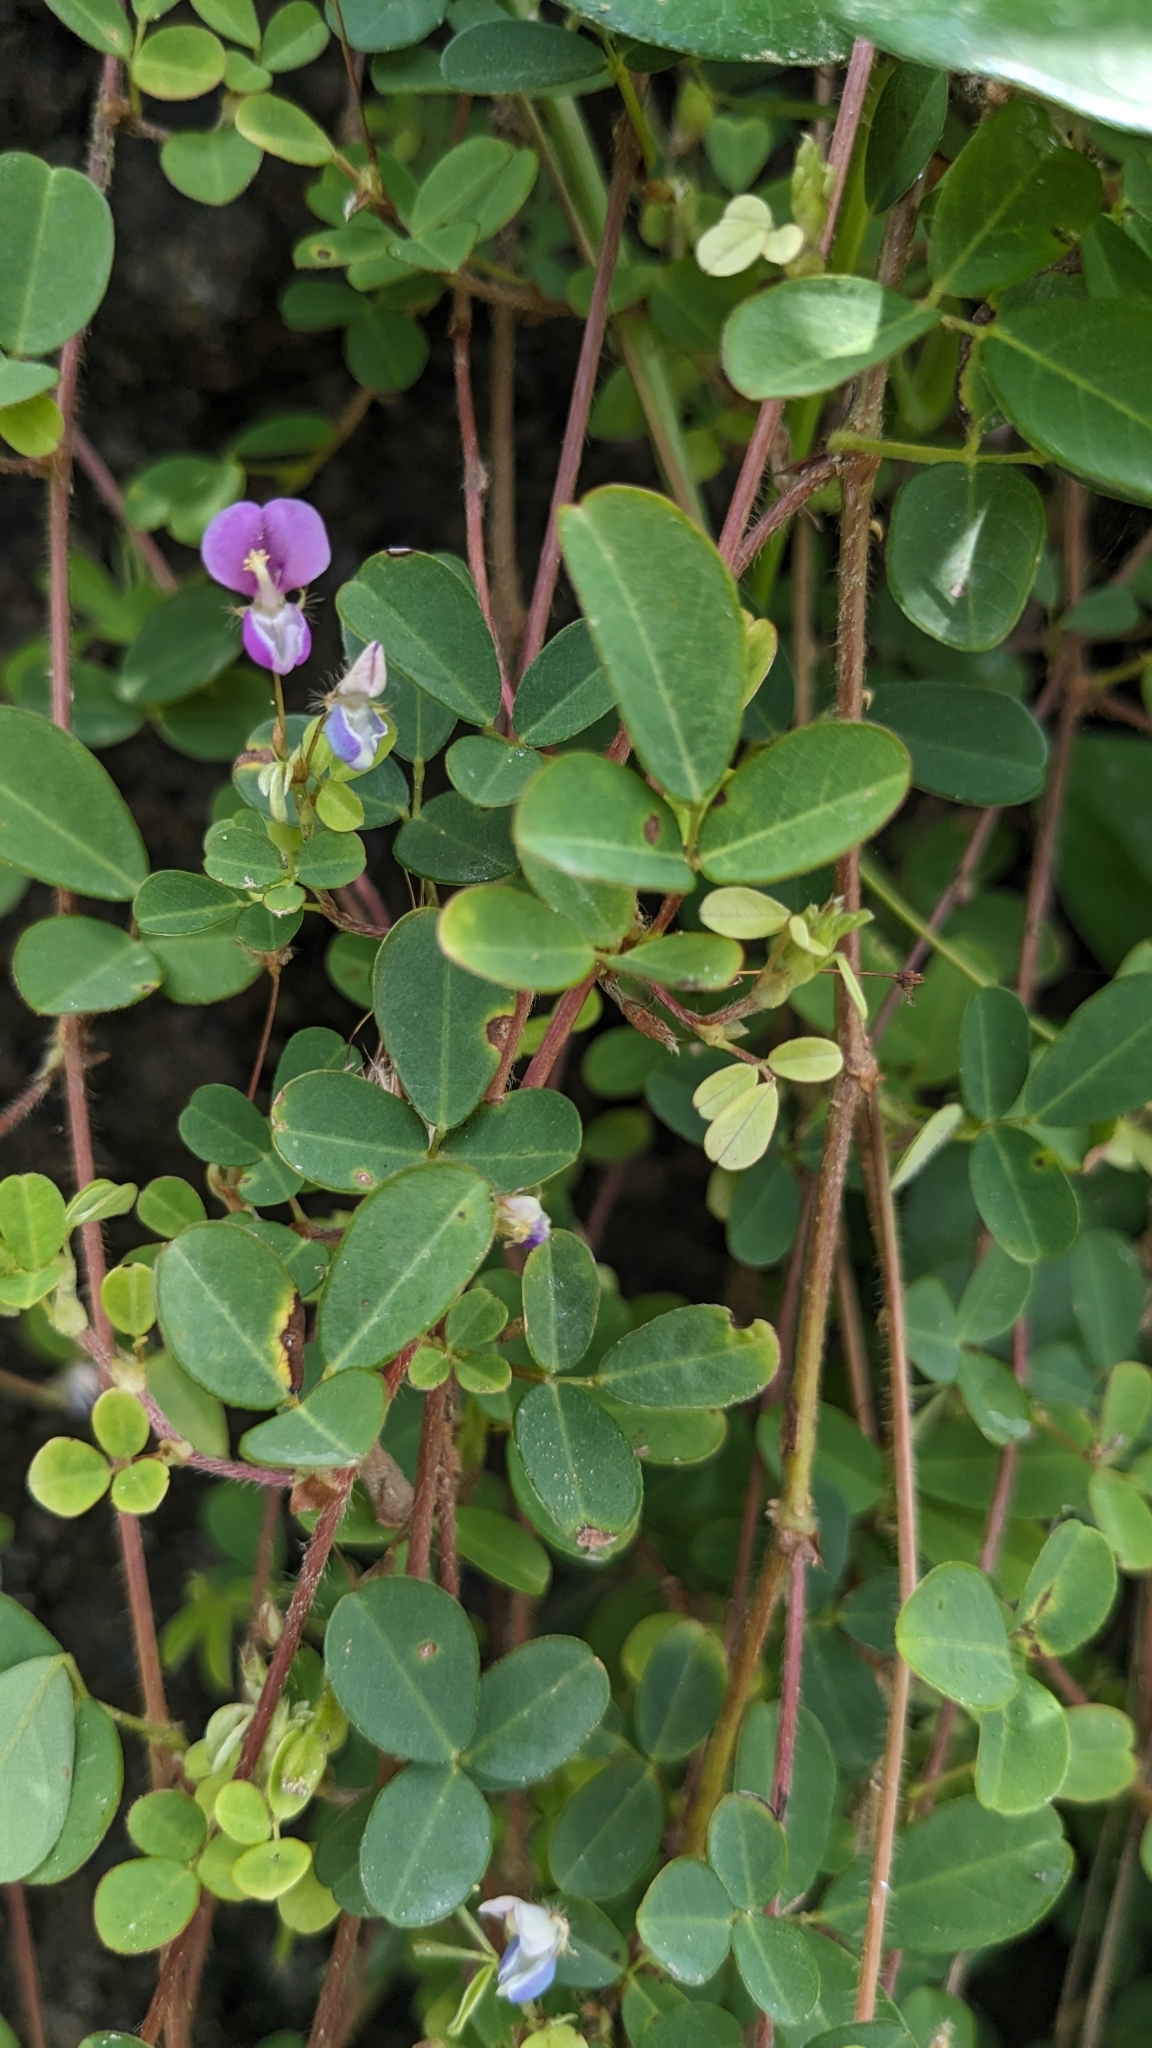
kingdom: Plantae
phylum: Tracheophyta
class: Magnoliopsida
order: Fabales
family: Fabaceae
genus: Grona
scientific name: Grona heterophylla
